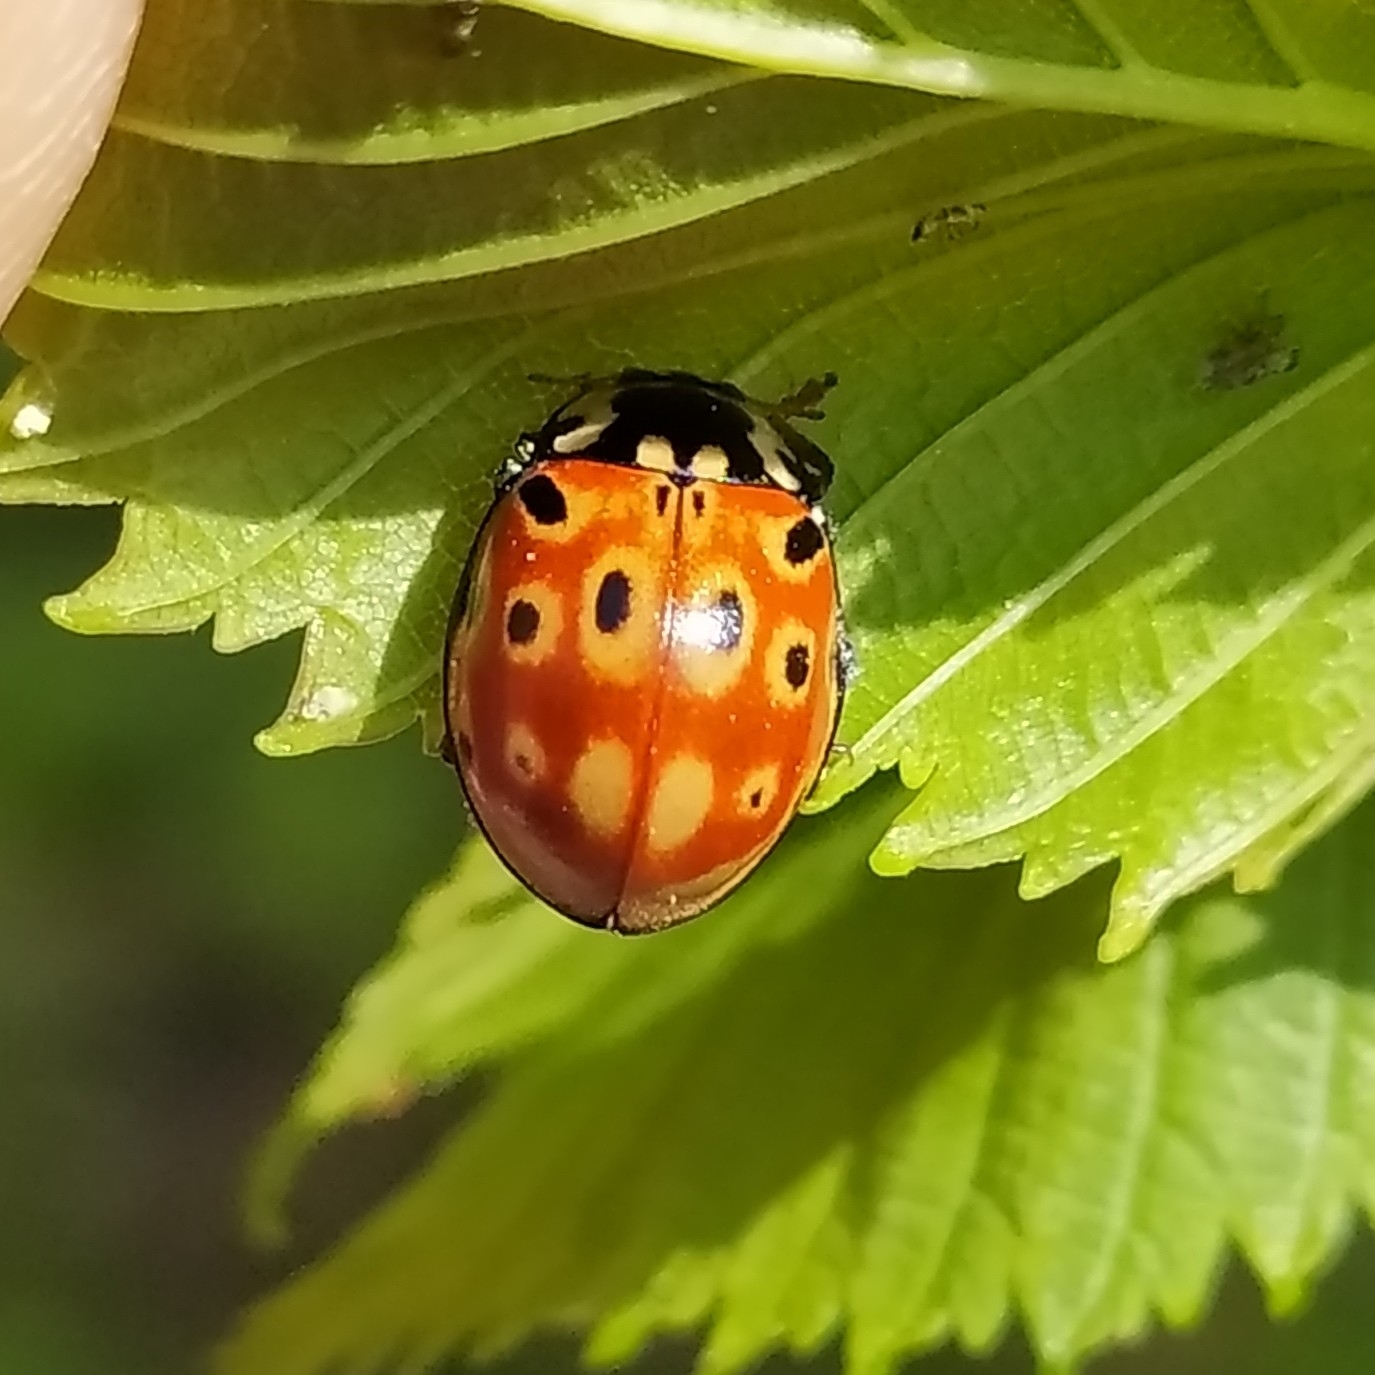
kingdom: Animalia
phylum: Arthropoda
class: Insecta
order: Coleoptera
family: Coccinellidae
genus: Anatis
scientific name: Anatis ocellata
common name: Eyed ladybird
